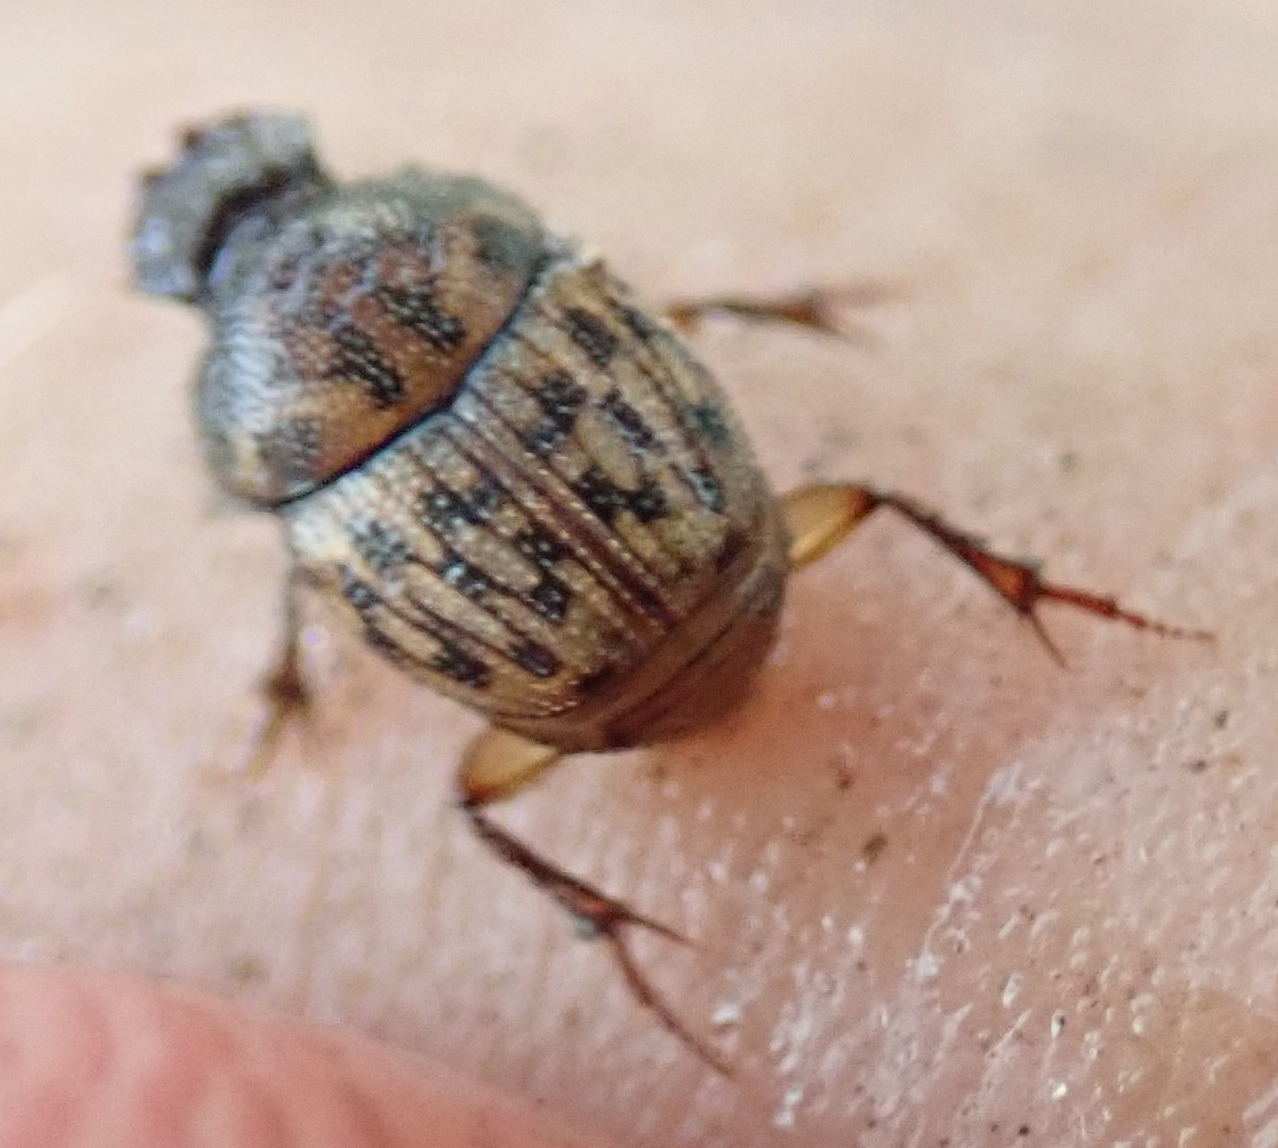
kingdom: Animalia
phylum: Arthropoda
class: Insecta
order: Coleoptera
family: Scarabaeidae
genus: Onthophagus
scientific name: Onthophagus variegatus
